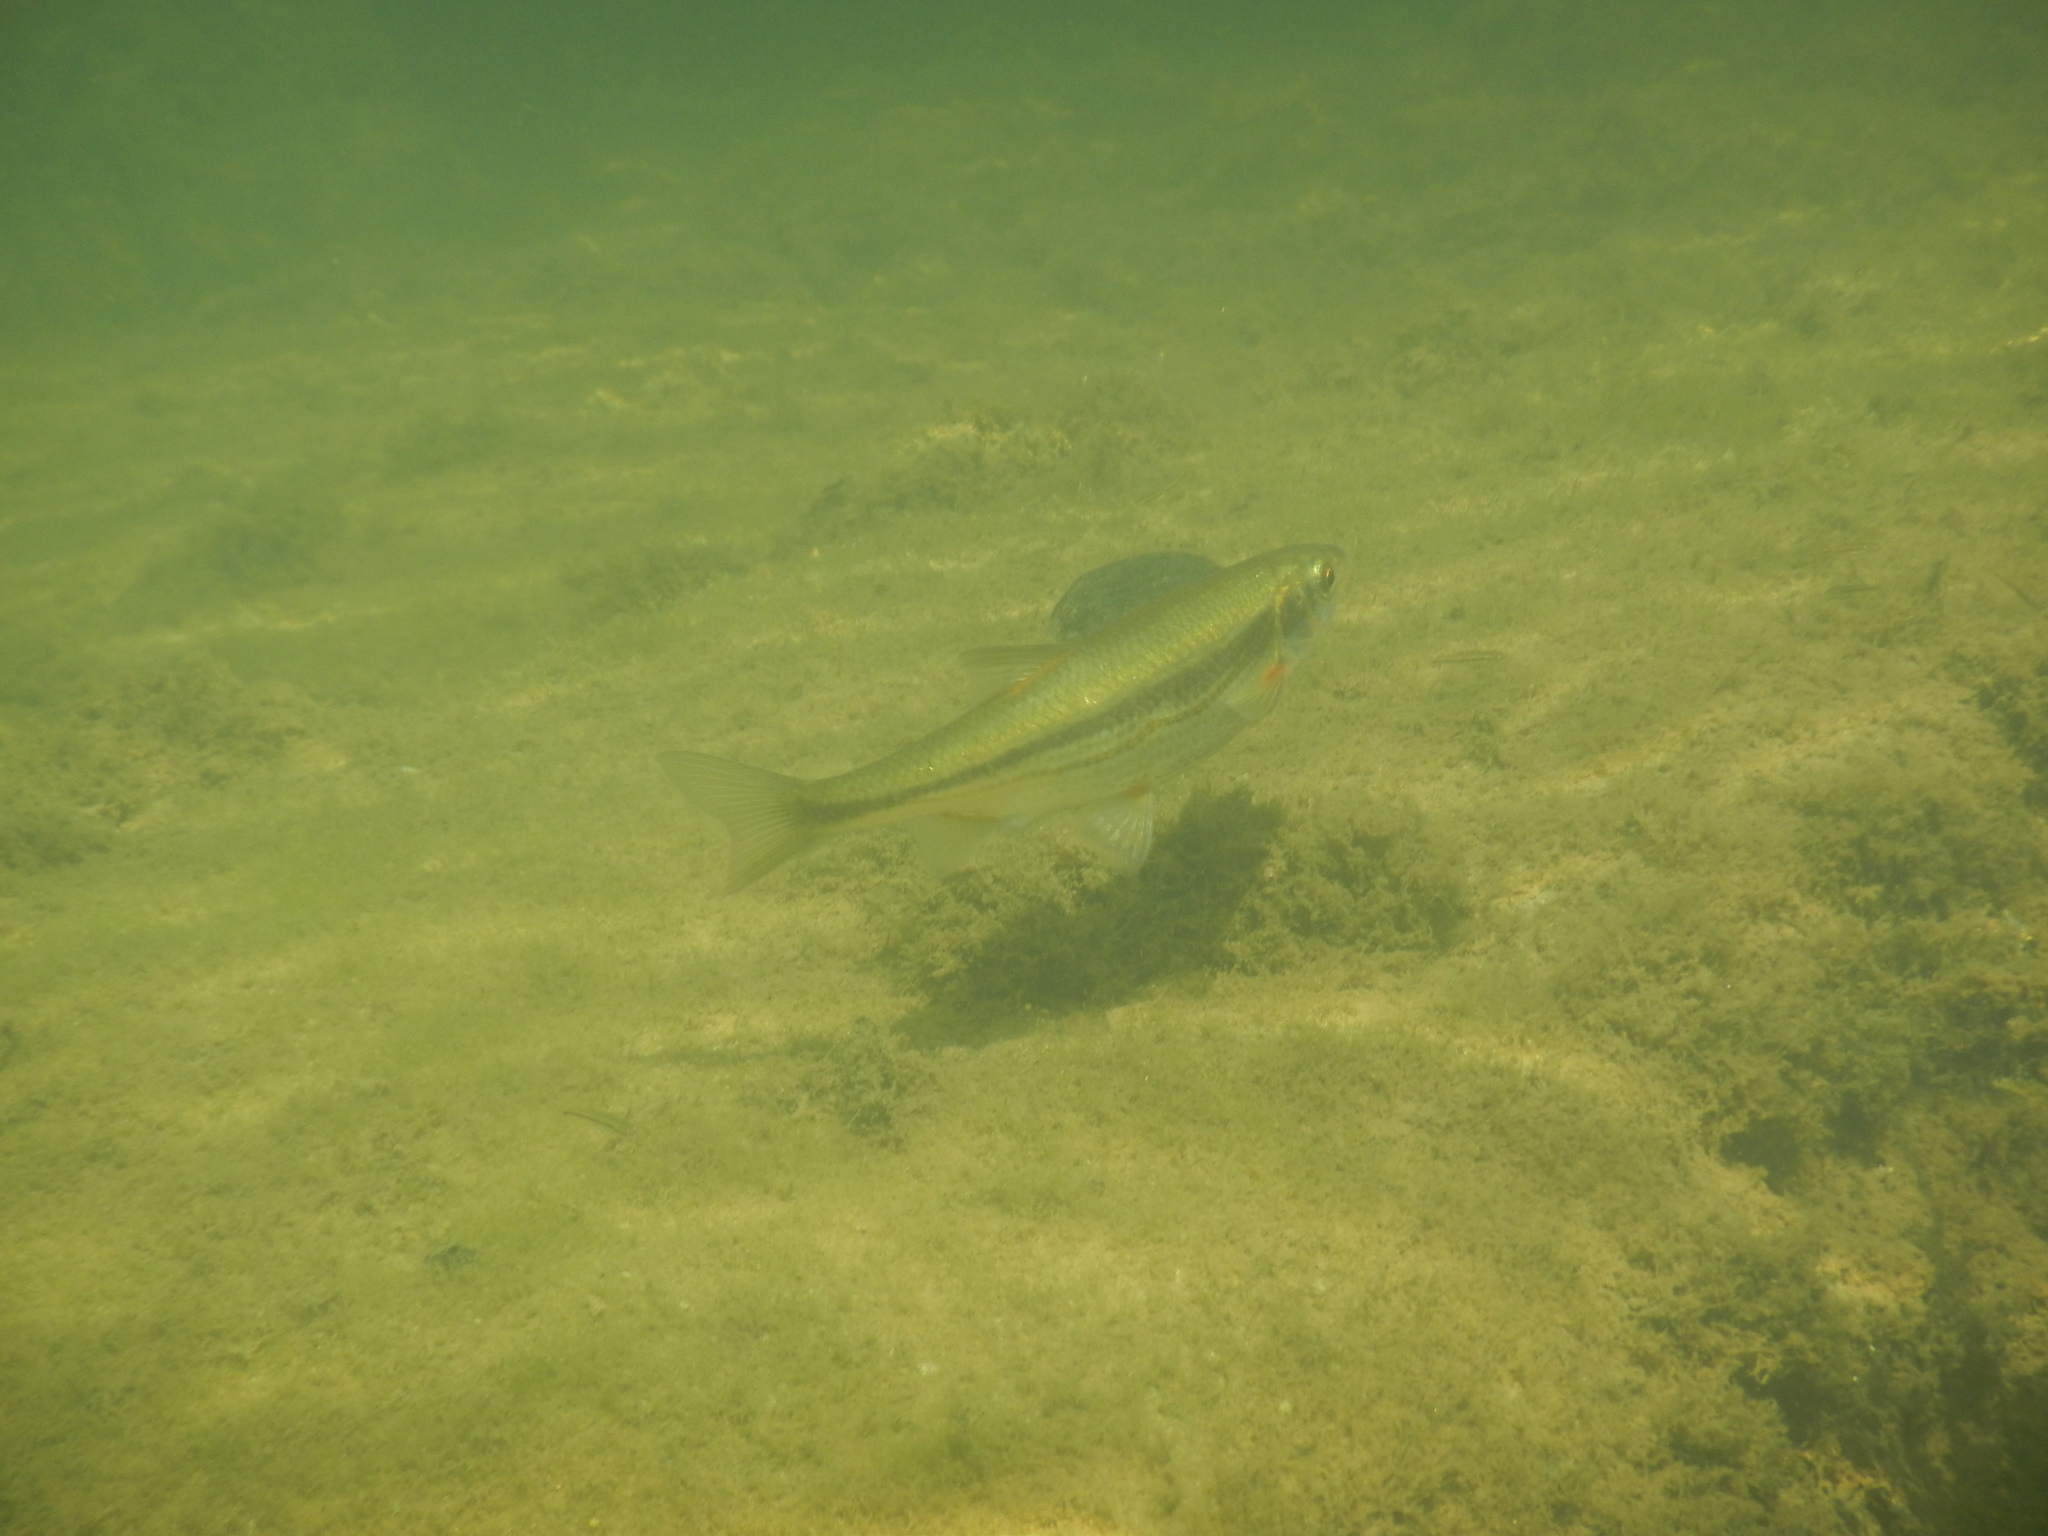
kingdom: Animalia
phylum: Chordata
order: Cypriniformes
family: Cyprinidae
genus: Telestes
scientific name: Telestes souffia
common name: Souffia
